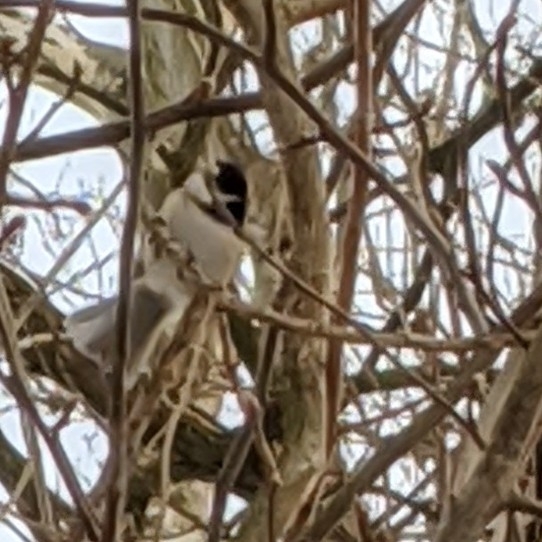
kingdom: Animalia
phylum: Chordata
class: Aves
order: Passeriformes
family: Paridae
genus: Poecile
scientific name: Poecile
